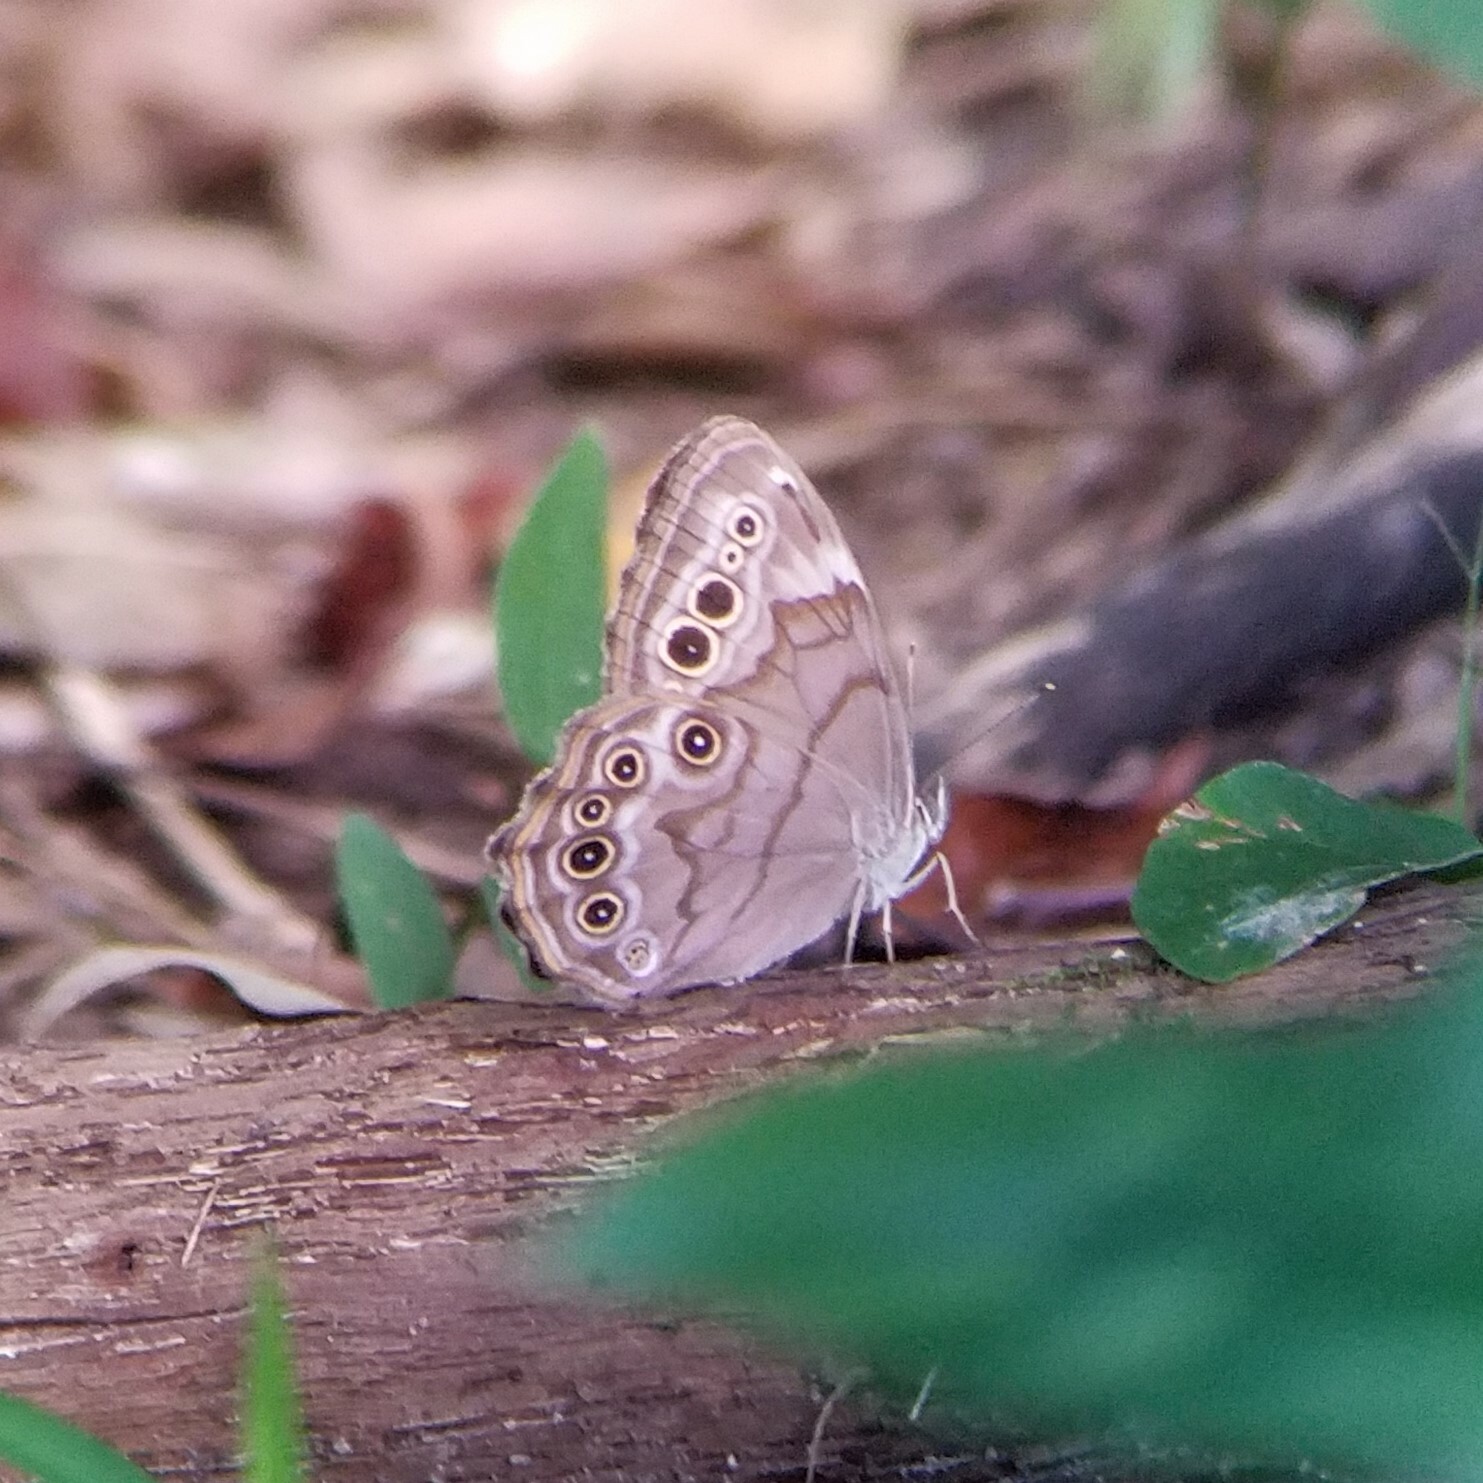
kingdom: Animalia
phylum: Arthropoda
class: Insecta
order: Lepidoptera
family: Nymphalidae
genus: Lethe
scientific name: Lethe anthedon
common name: Northern pearly-eye
